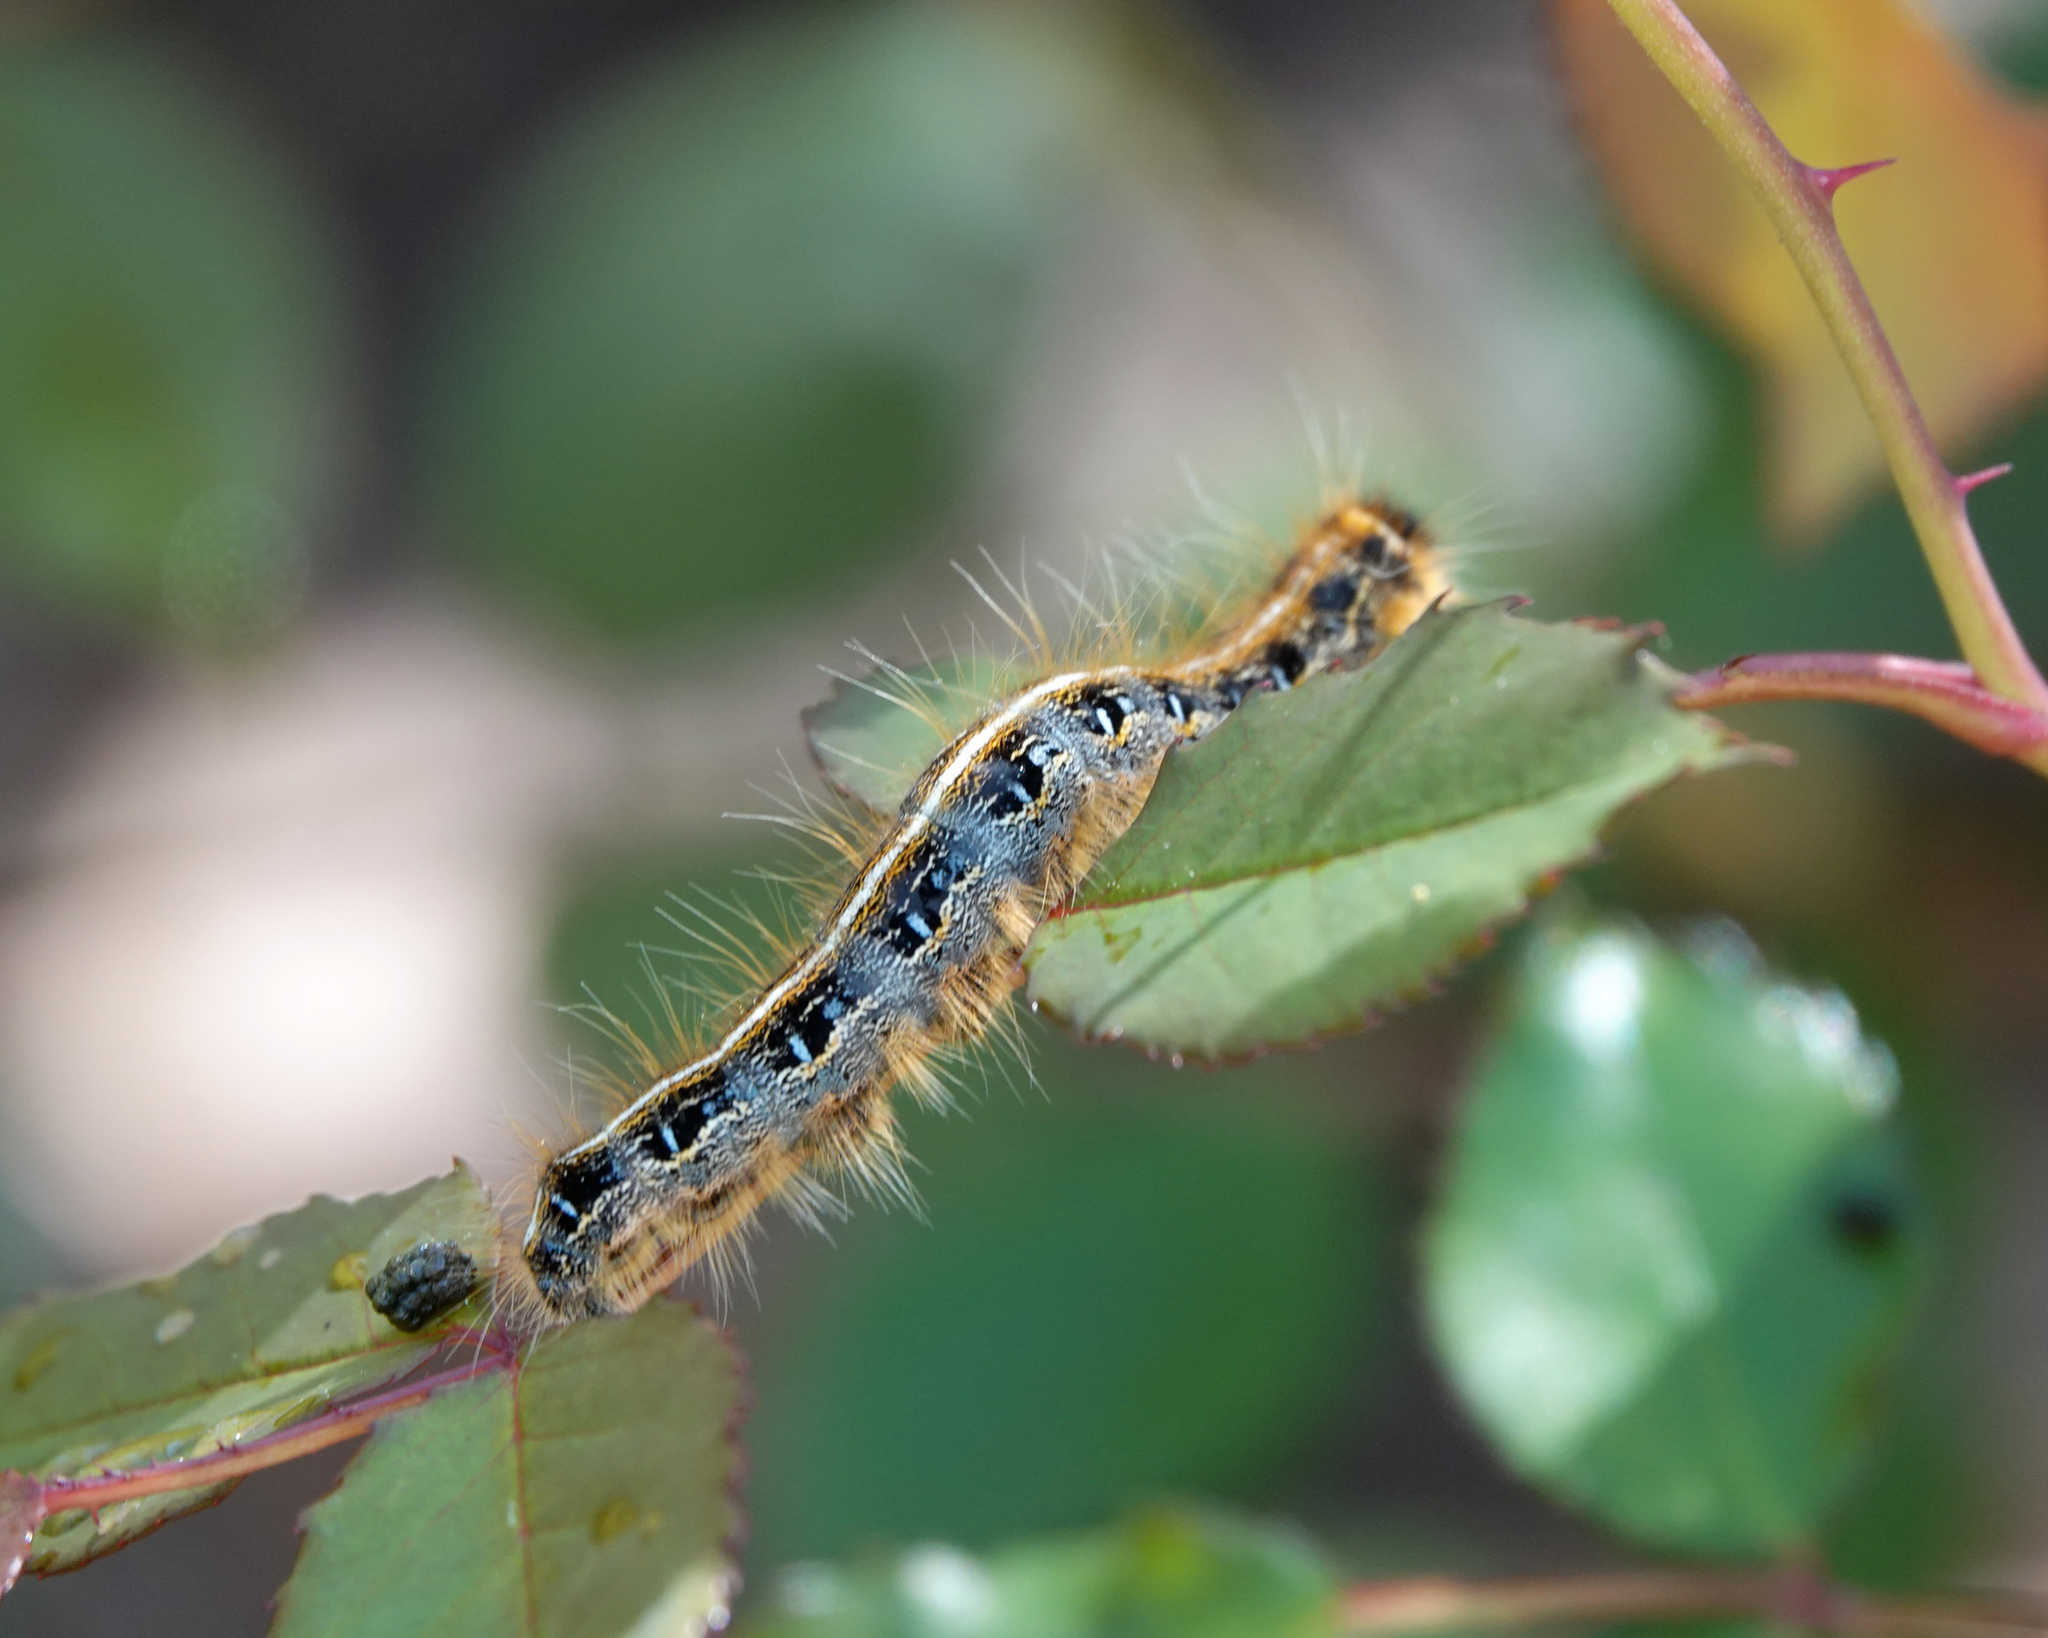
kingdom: Animalia
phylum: Arthropoda
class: Insecta
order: Lepidoptera
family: Lasiocampidae
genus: Malacosoma
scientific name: Malacosoma americana
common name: Eastern tent caterpillar moth
